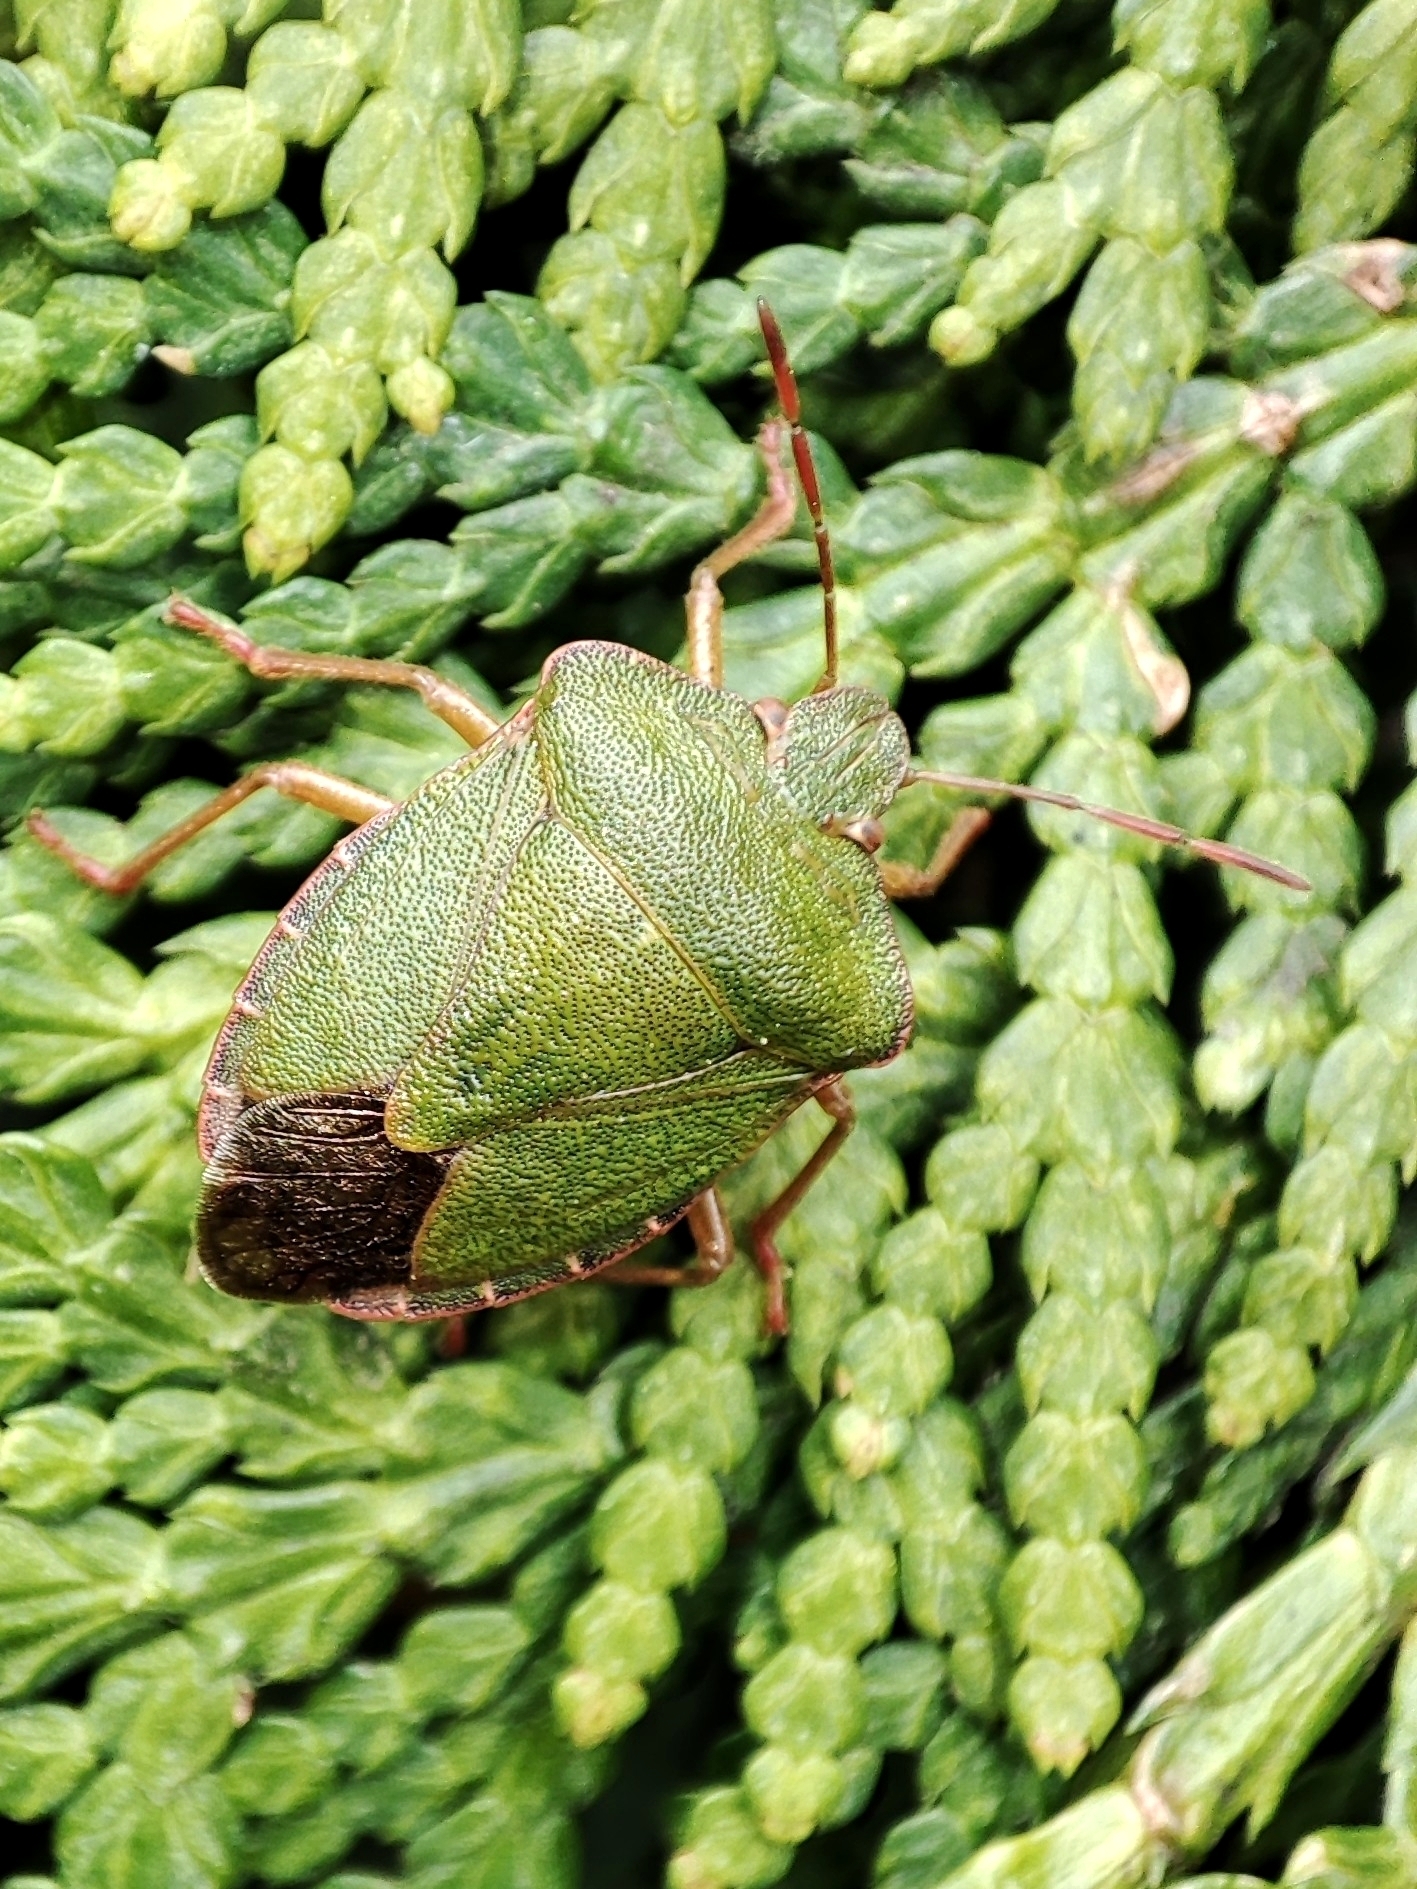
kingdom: Animalia
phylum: Arthropoda
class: Insecta
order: Hemiptera
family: Pentatomidae
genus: Palomena
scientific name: Palomena prasina
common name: Green shieldbug
